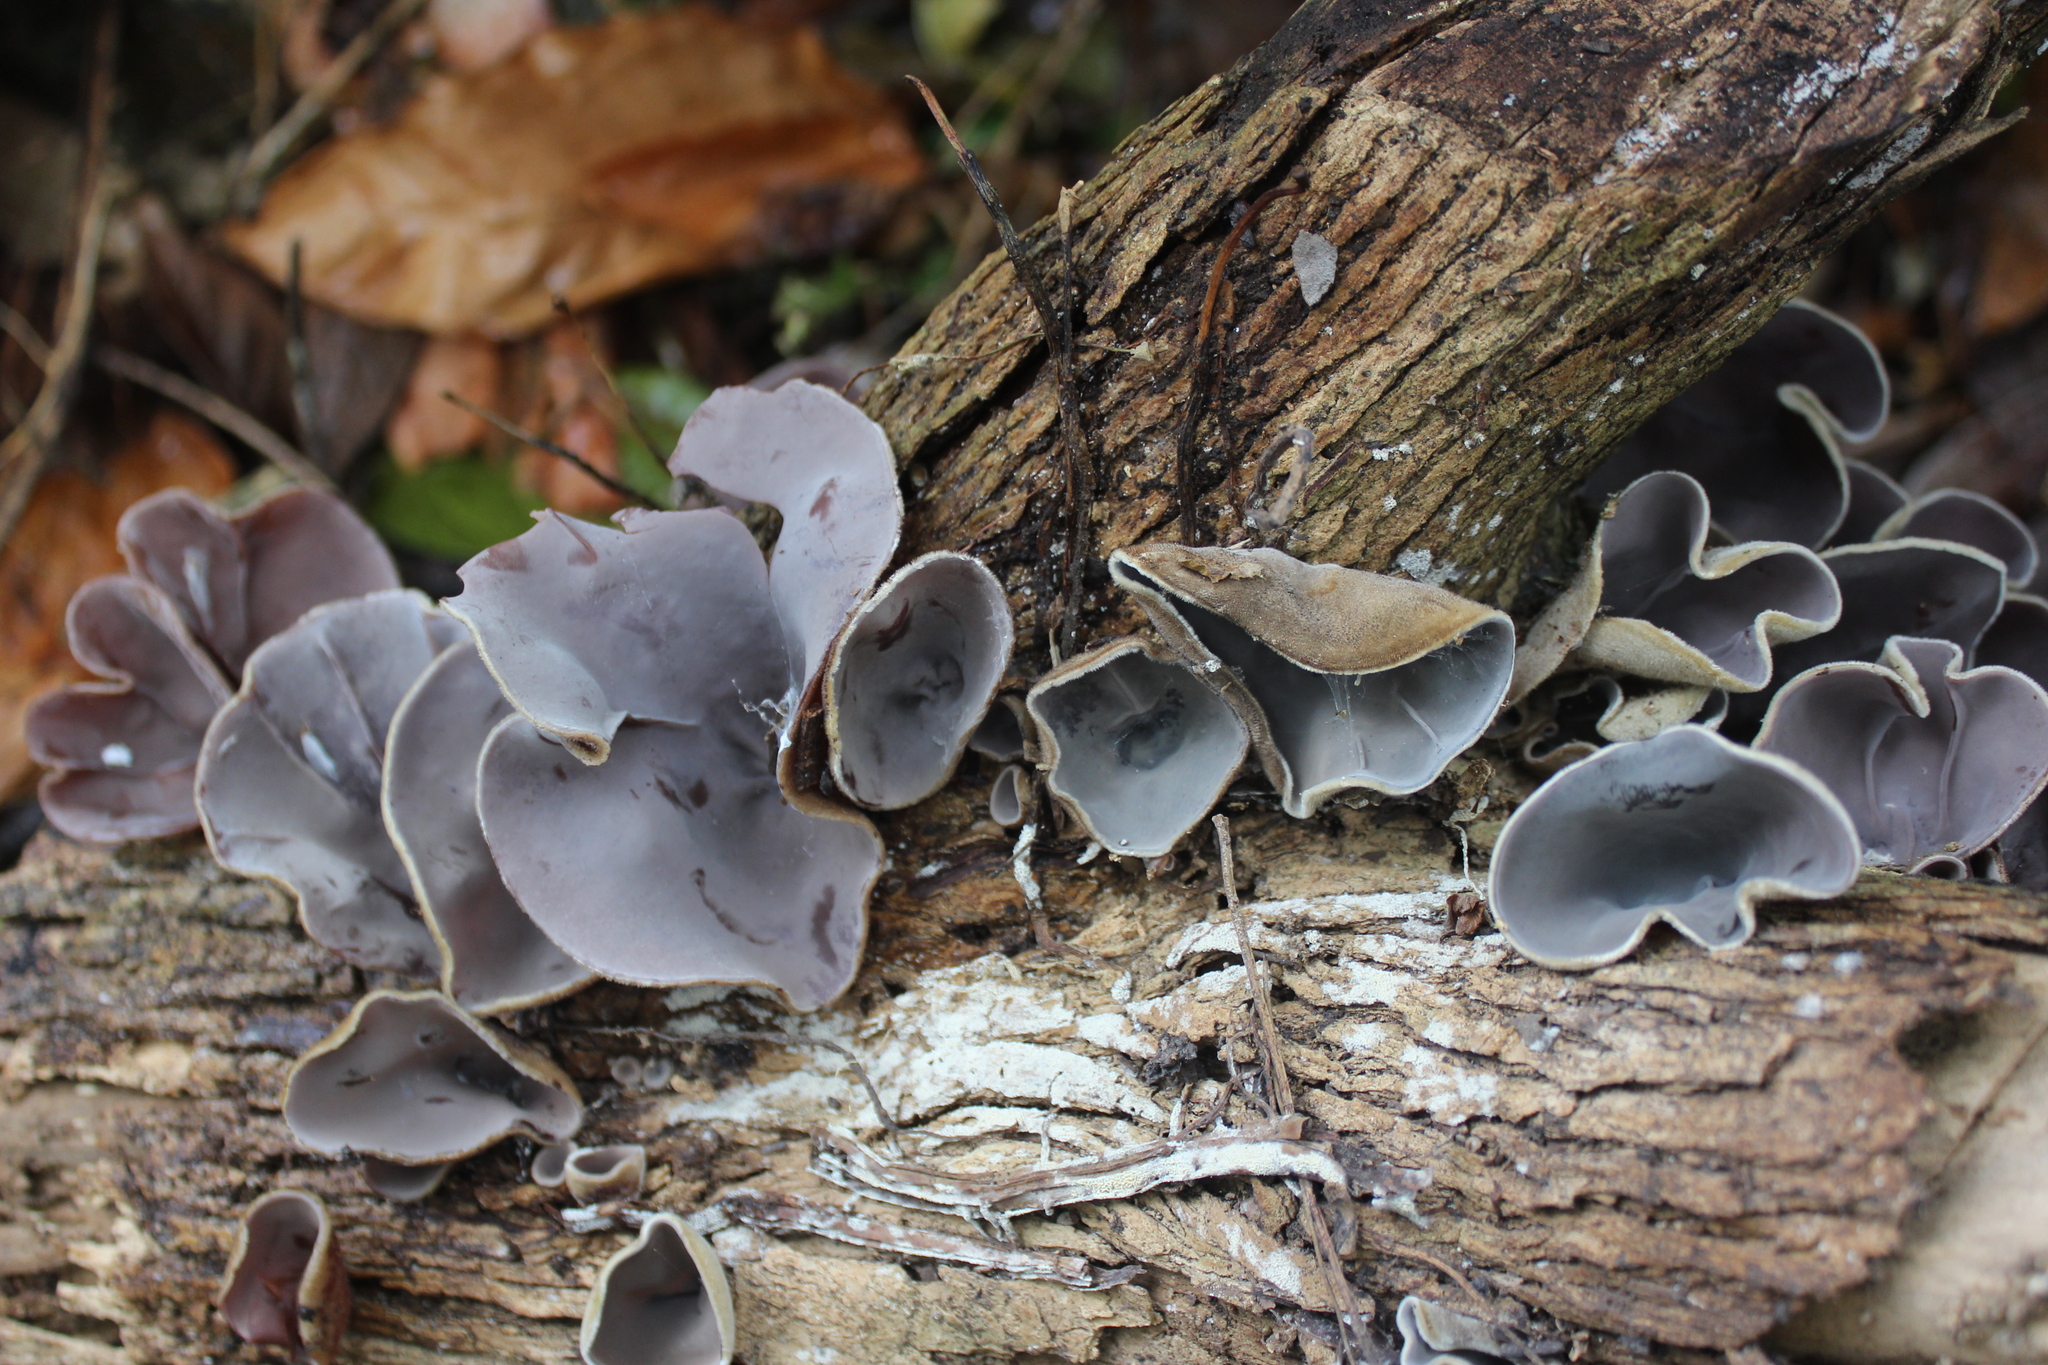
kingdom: Fungi
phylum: Basidiomycota
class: Agaricomycetes
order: Auriculariales
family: Auriculariaceae
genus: Auricularia
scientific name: Auricularia cornea
